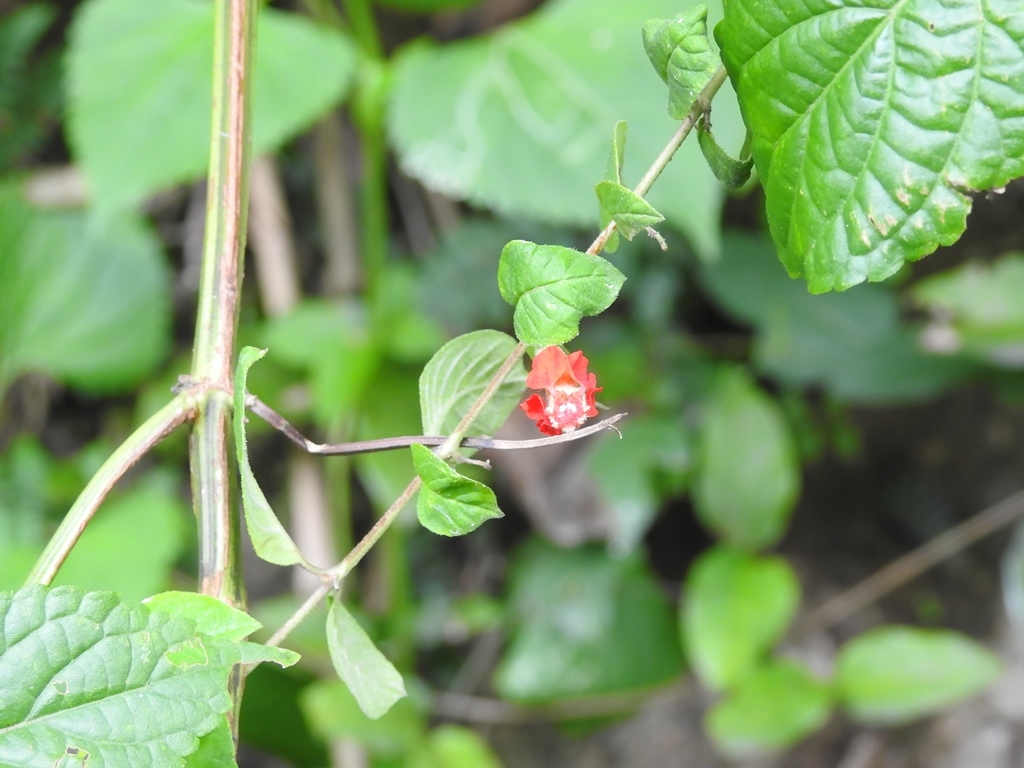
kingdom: Plantae
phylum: Tracheophyta
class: Magnoliopsida
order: Myrtales
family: Lythraceae
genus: Cuphea
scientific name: Cuphea intermedia
